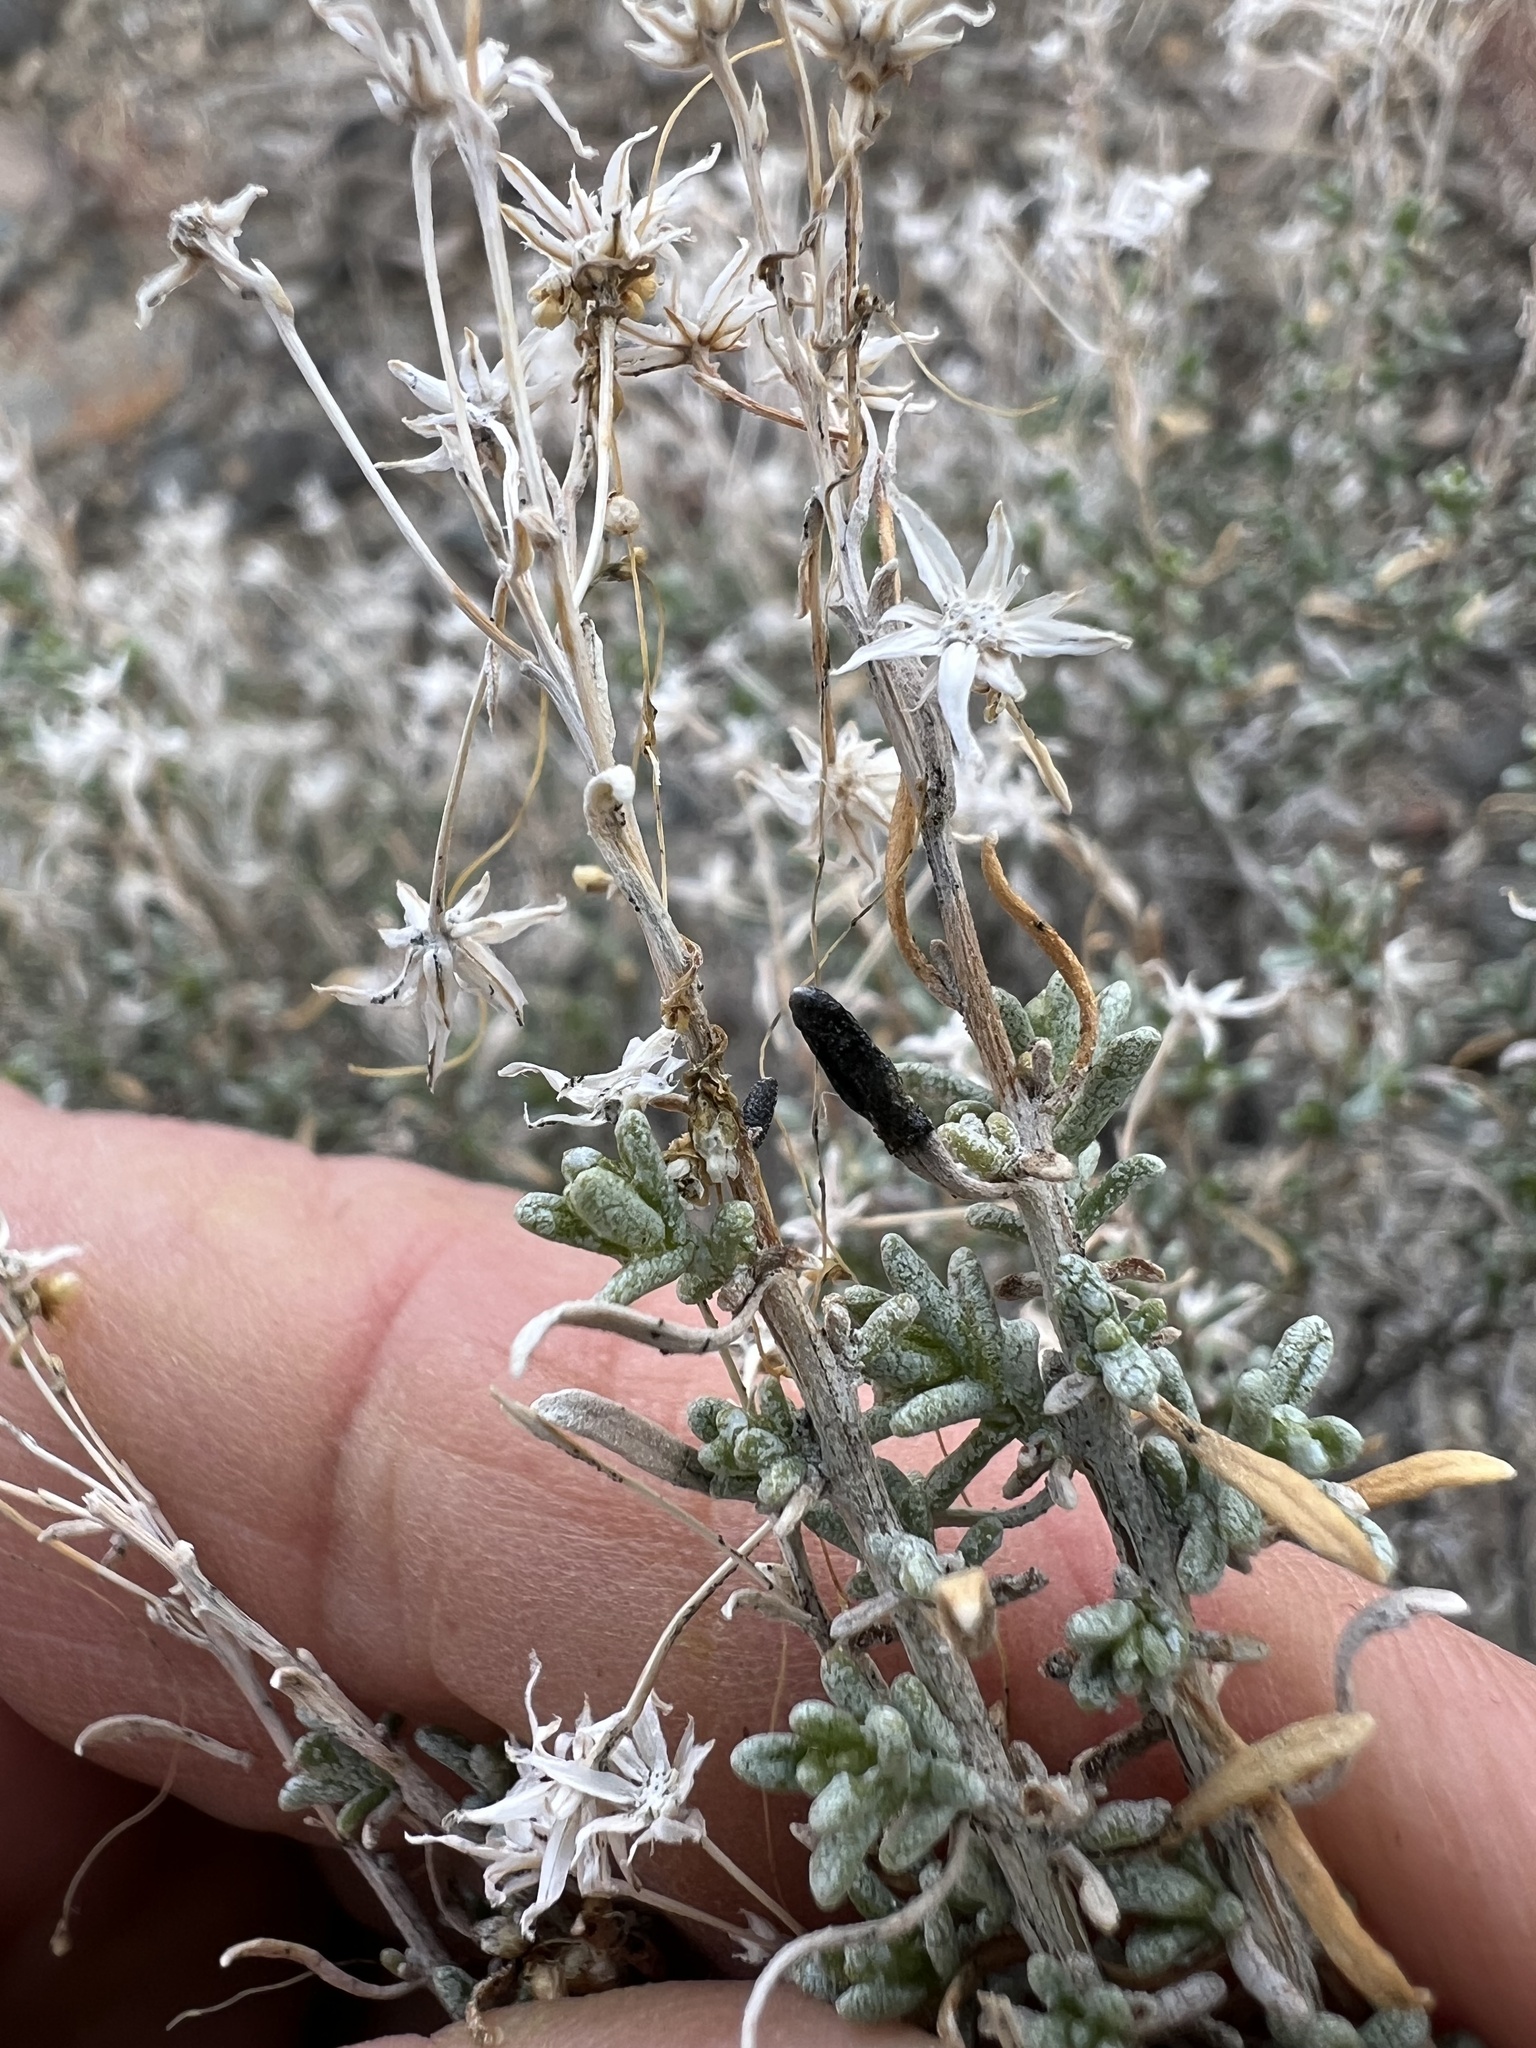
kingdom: Plantae
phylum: Tracheophyta
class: Magnoliopsida
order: Asterales
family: Asteraceae
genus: Ericameria
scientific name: Ericameria cooperi
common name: Cooper's goldenbush
